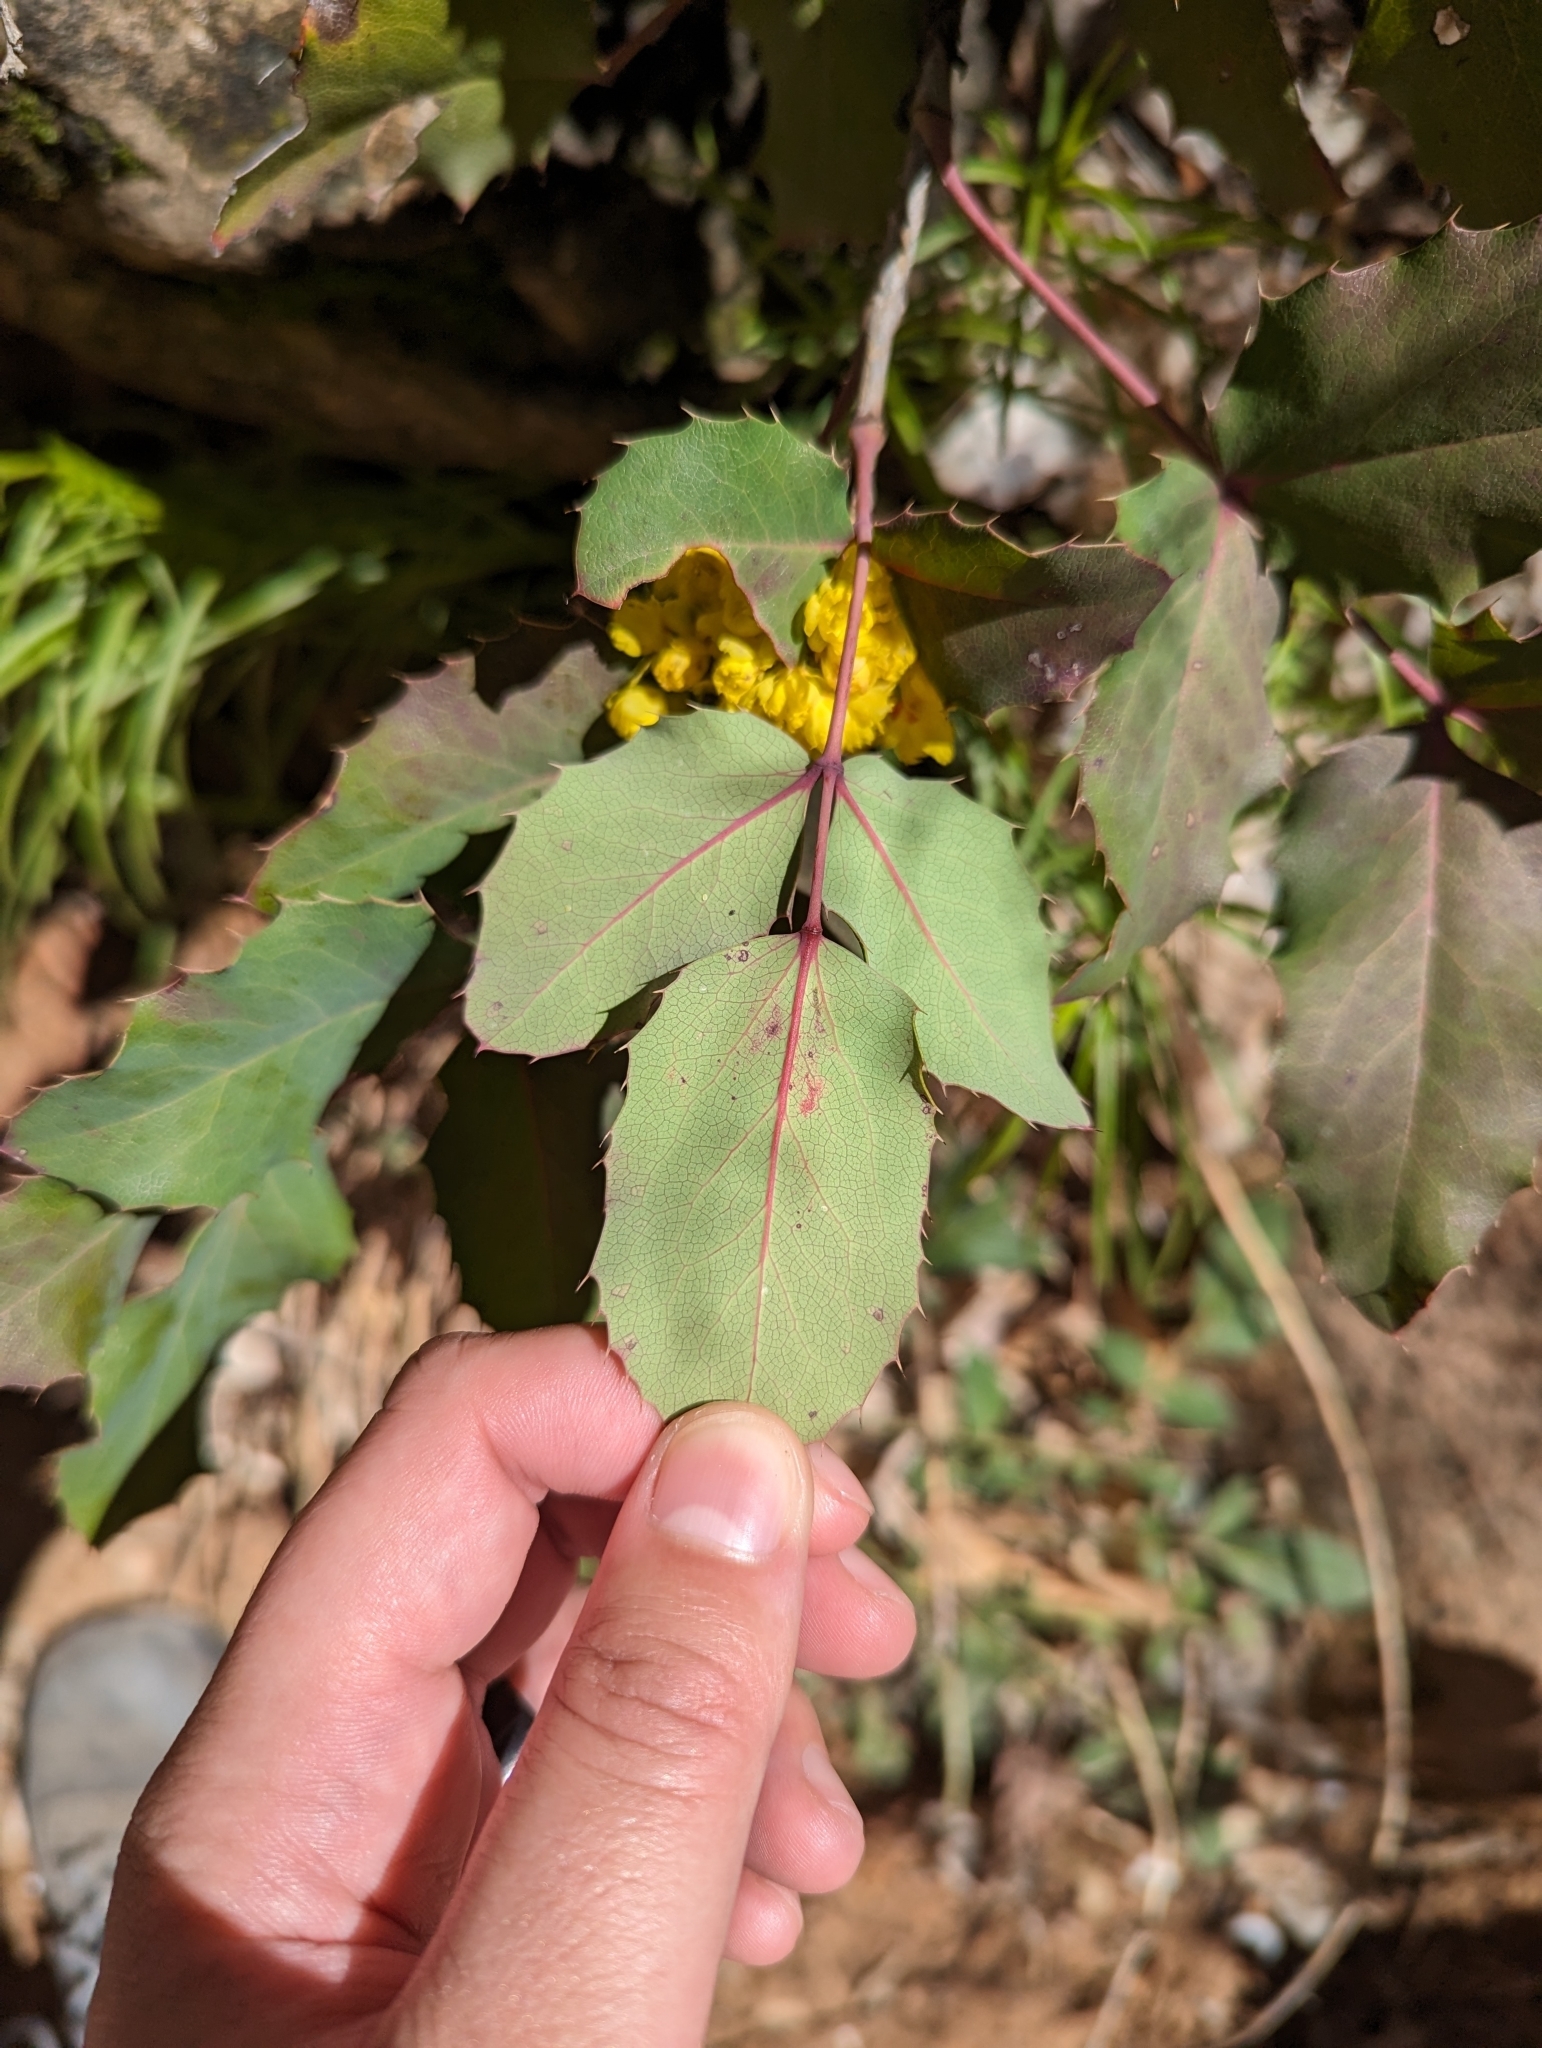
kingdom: Plantae
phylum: Tracheophyta
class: Magnoliopsida
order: Ranunculales
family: Berberidaceae
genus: Mahonia
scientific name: Mahonia repens
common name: Creeping oregon-grape
